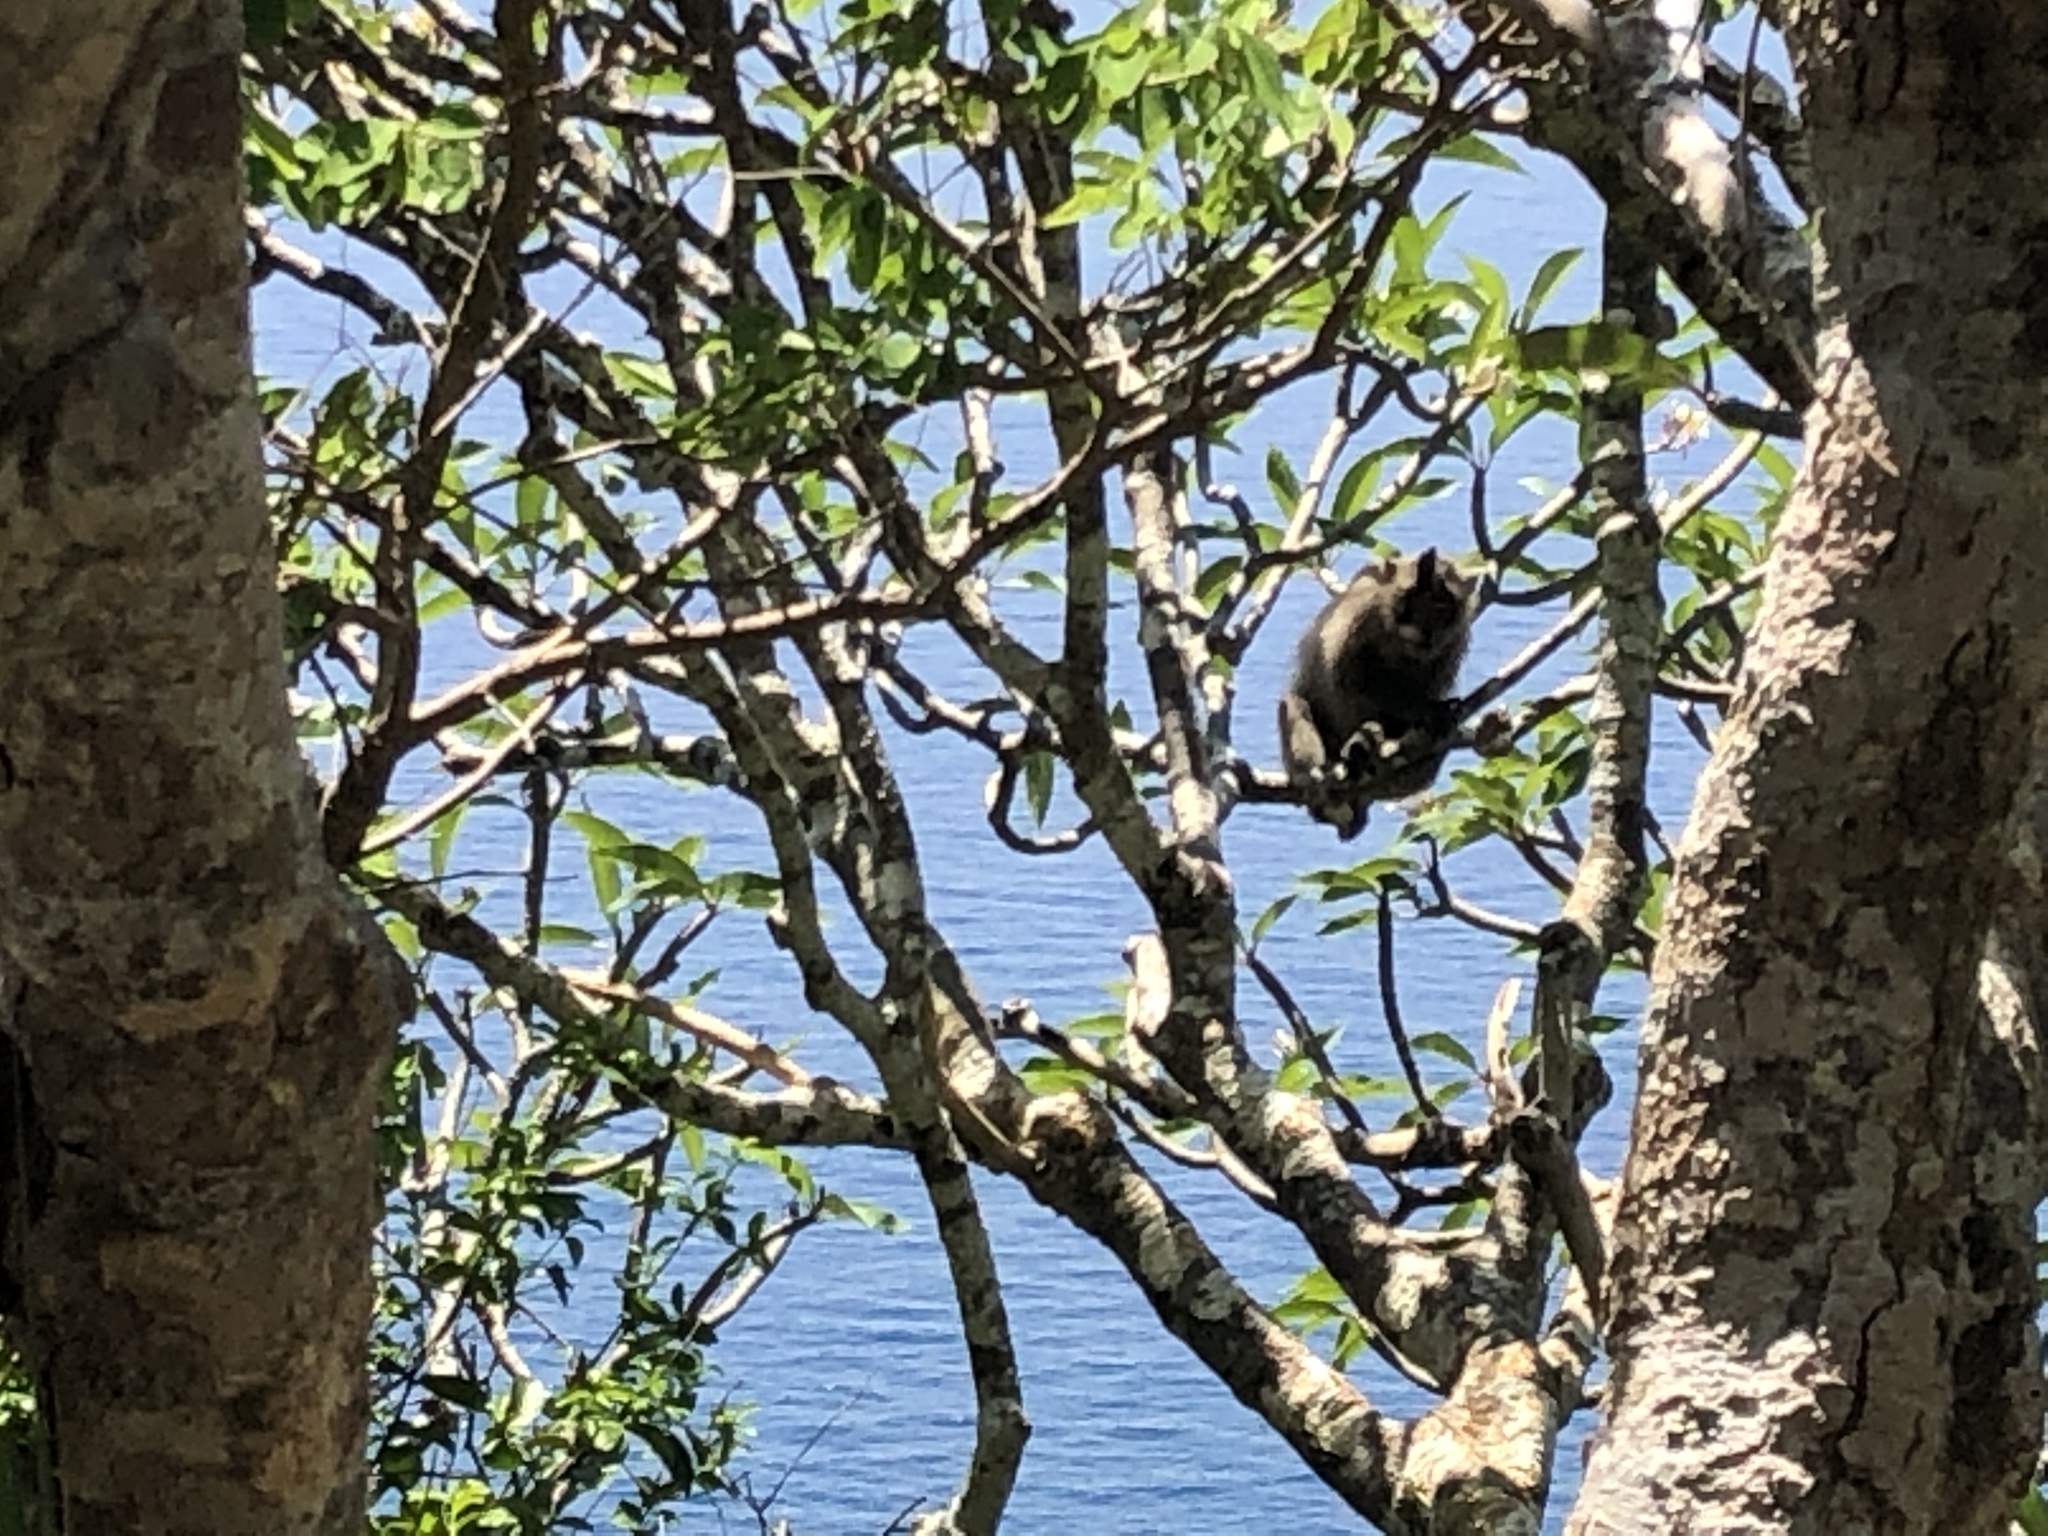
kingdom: Animalia
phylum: Chordata
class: Mammalia
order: Primates
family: Cercopithecidae
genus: Macaca
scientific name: Macaca fascicularis
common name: Crab-eating macaque
